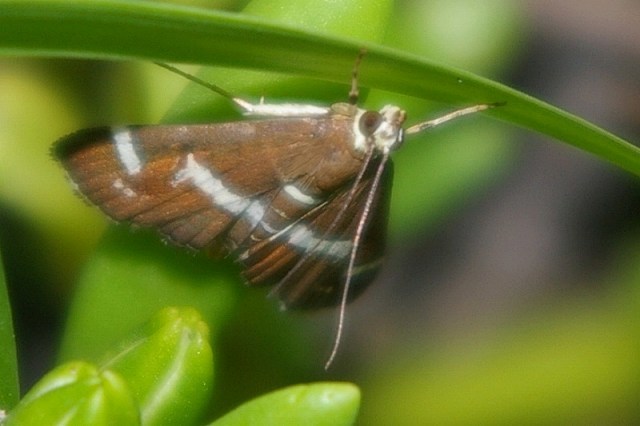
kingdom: Animalia
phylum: Arthropoda
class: Insecta
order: Lepidoptera
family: Crambidae
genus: Spoladea
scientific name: Spoladea recurvalis
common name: Beet webworm moth
